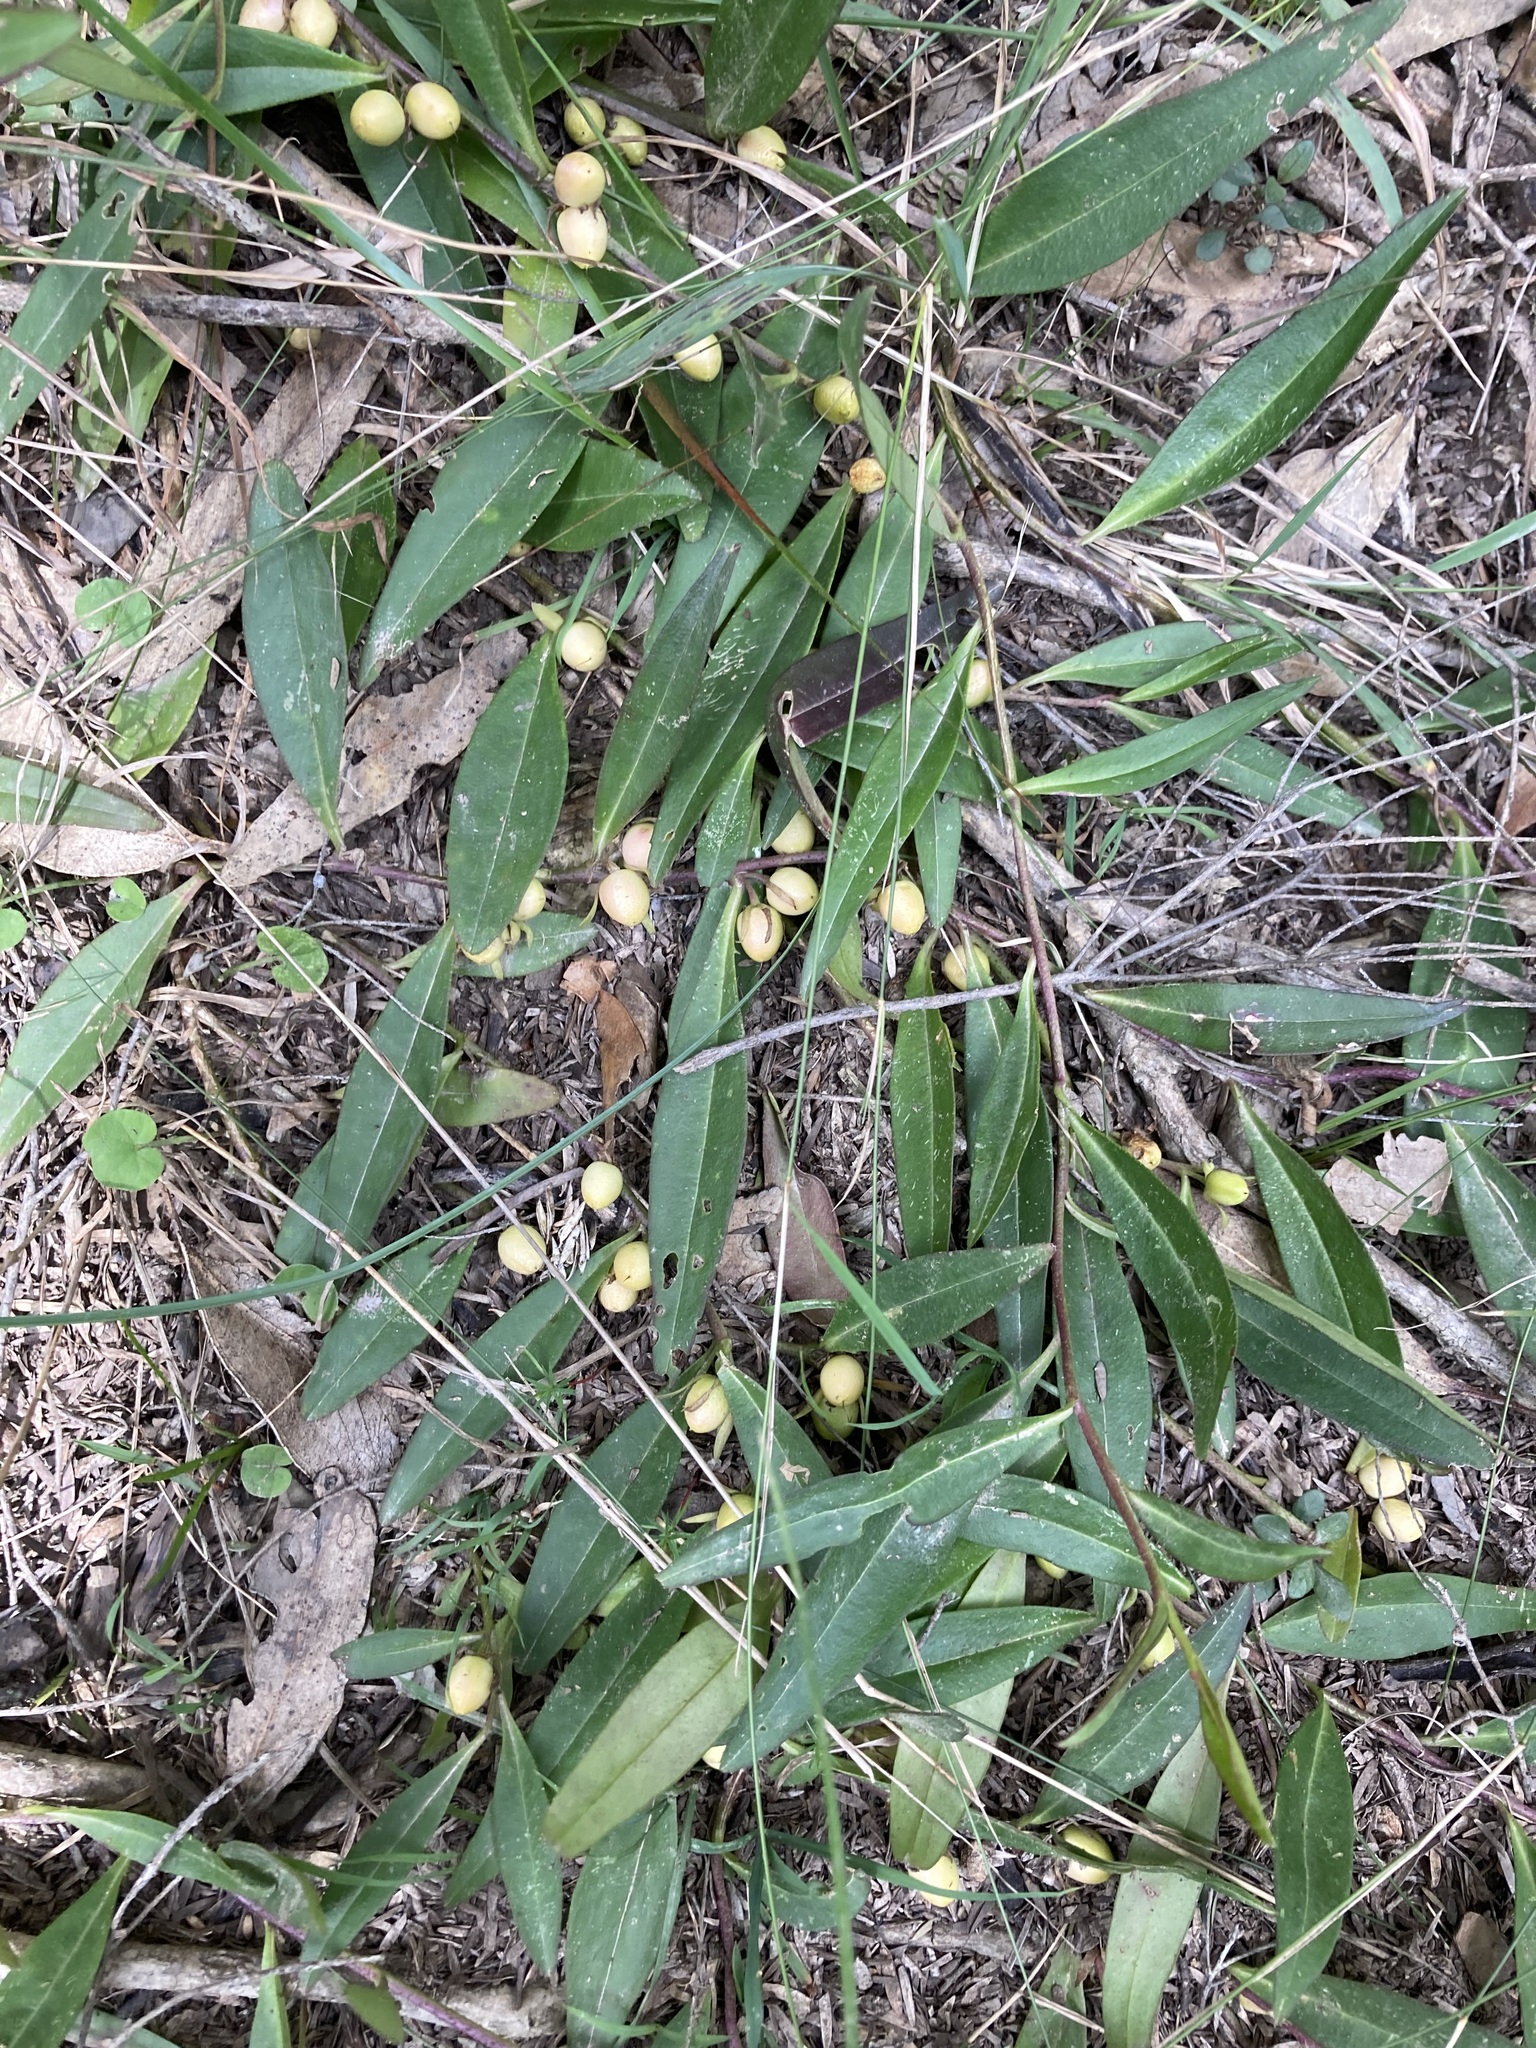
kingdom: Plantae
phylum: Tracheophyta
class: Magnoliopsida
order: Lamiales
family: Scrophulariaceae
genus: Eremophila
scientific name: Eremophila debilis
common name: Winter-apple
